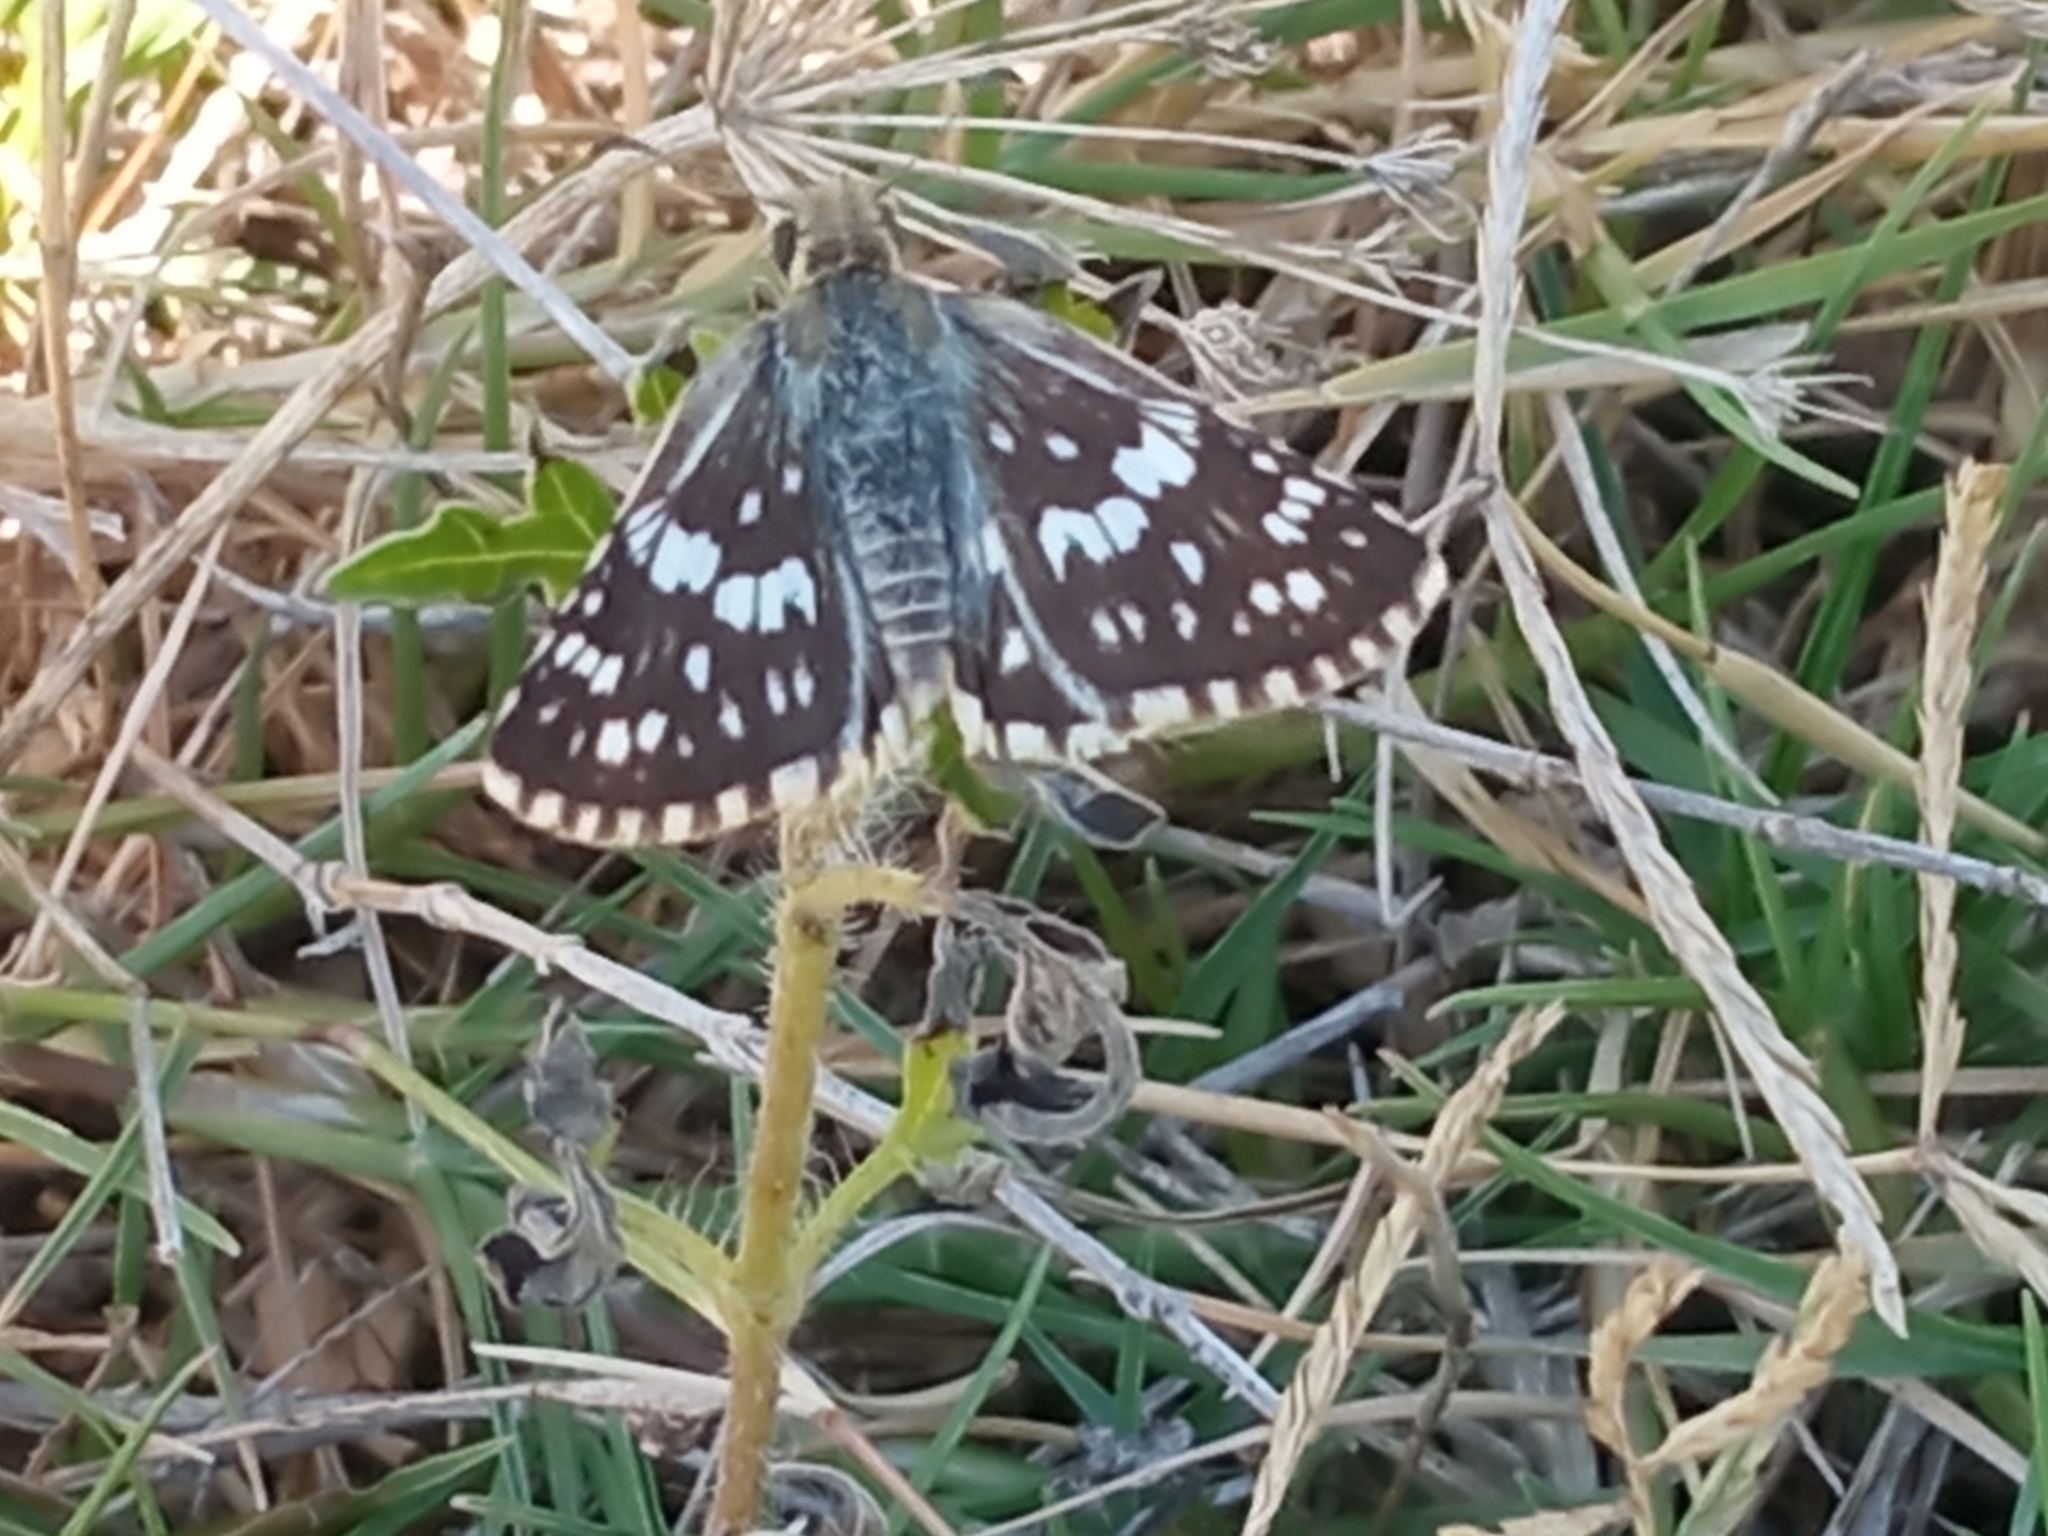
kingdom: Animalia
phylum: Arthropoda
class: Insecta
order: Lepidoptera
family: Hesperiidae
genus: Burnsius
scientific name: Burnsius orcynoides
